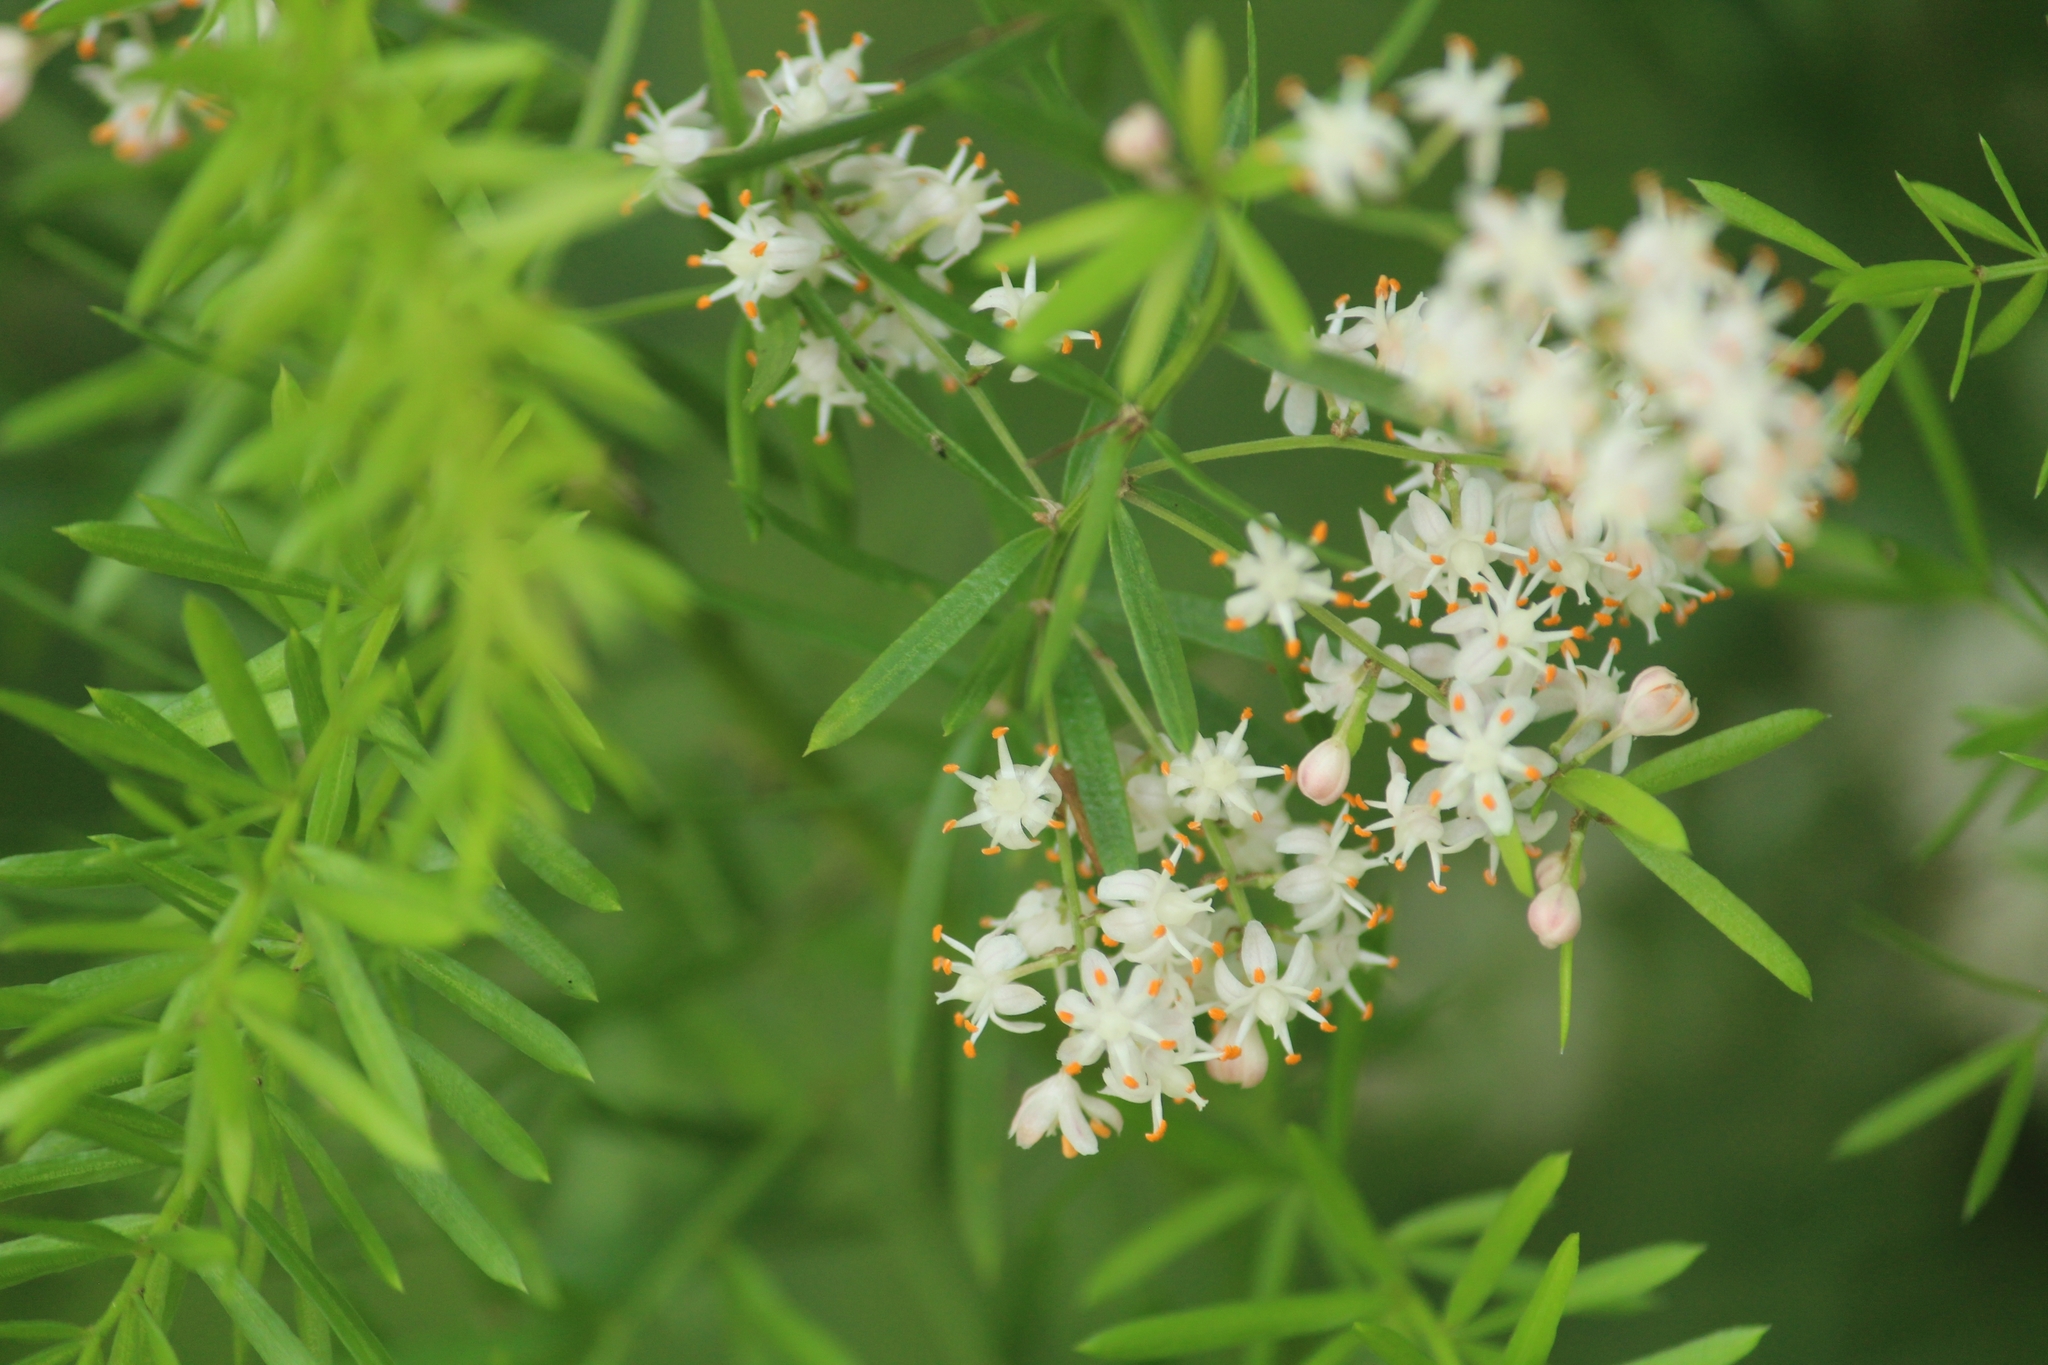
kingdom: Plantae
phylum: Tracheophyta
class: Liliopsida
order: Asparagales
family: Asparagaceae
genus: Asparagus
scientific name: Asparagus aethiopicus
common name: Sprenger's asparagus fern
